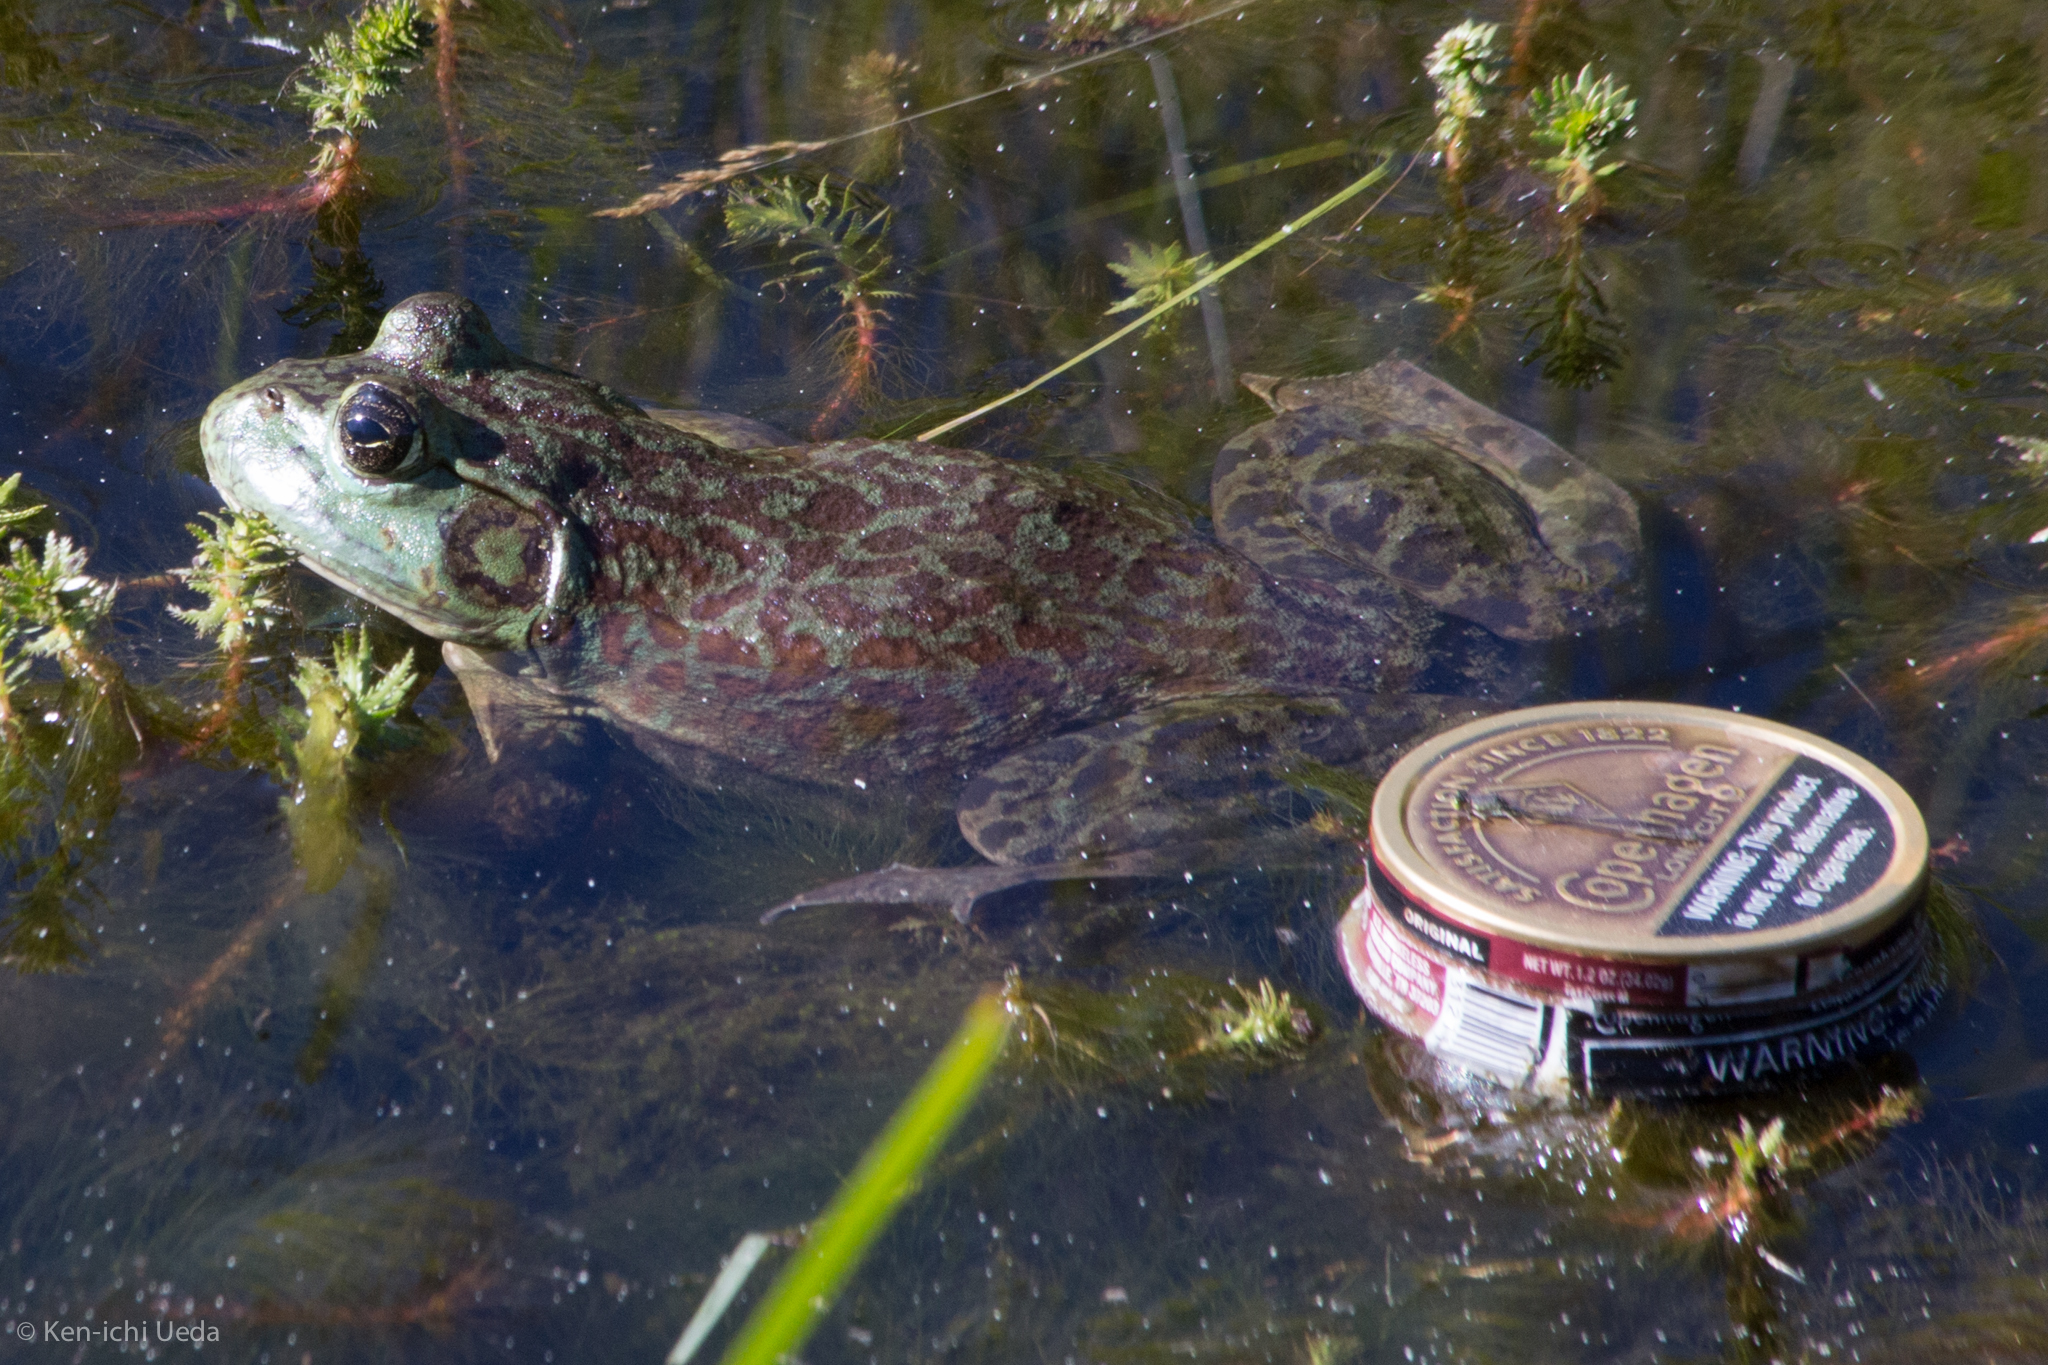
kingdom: Animalia
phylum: Chordata
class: Amphibia
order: Anura
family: Ranidae
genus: Lithobates
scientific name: Lithobates catesbeianus
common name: American bullfrog
